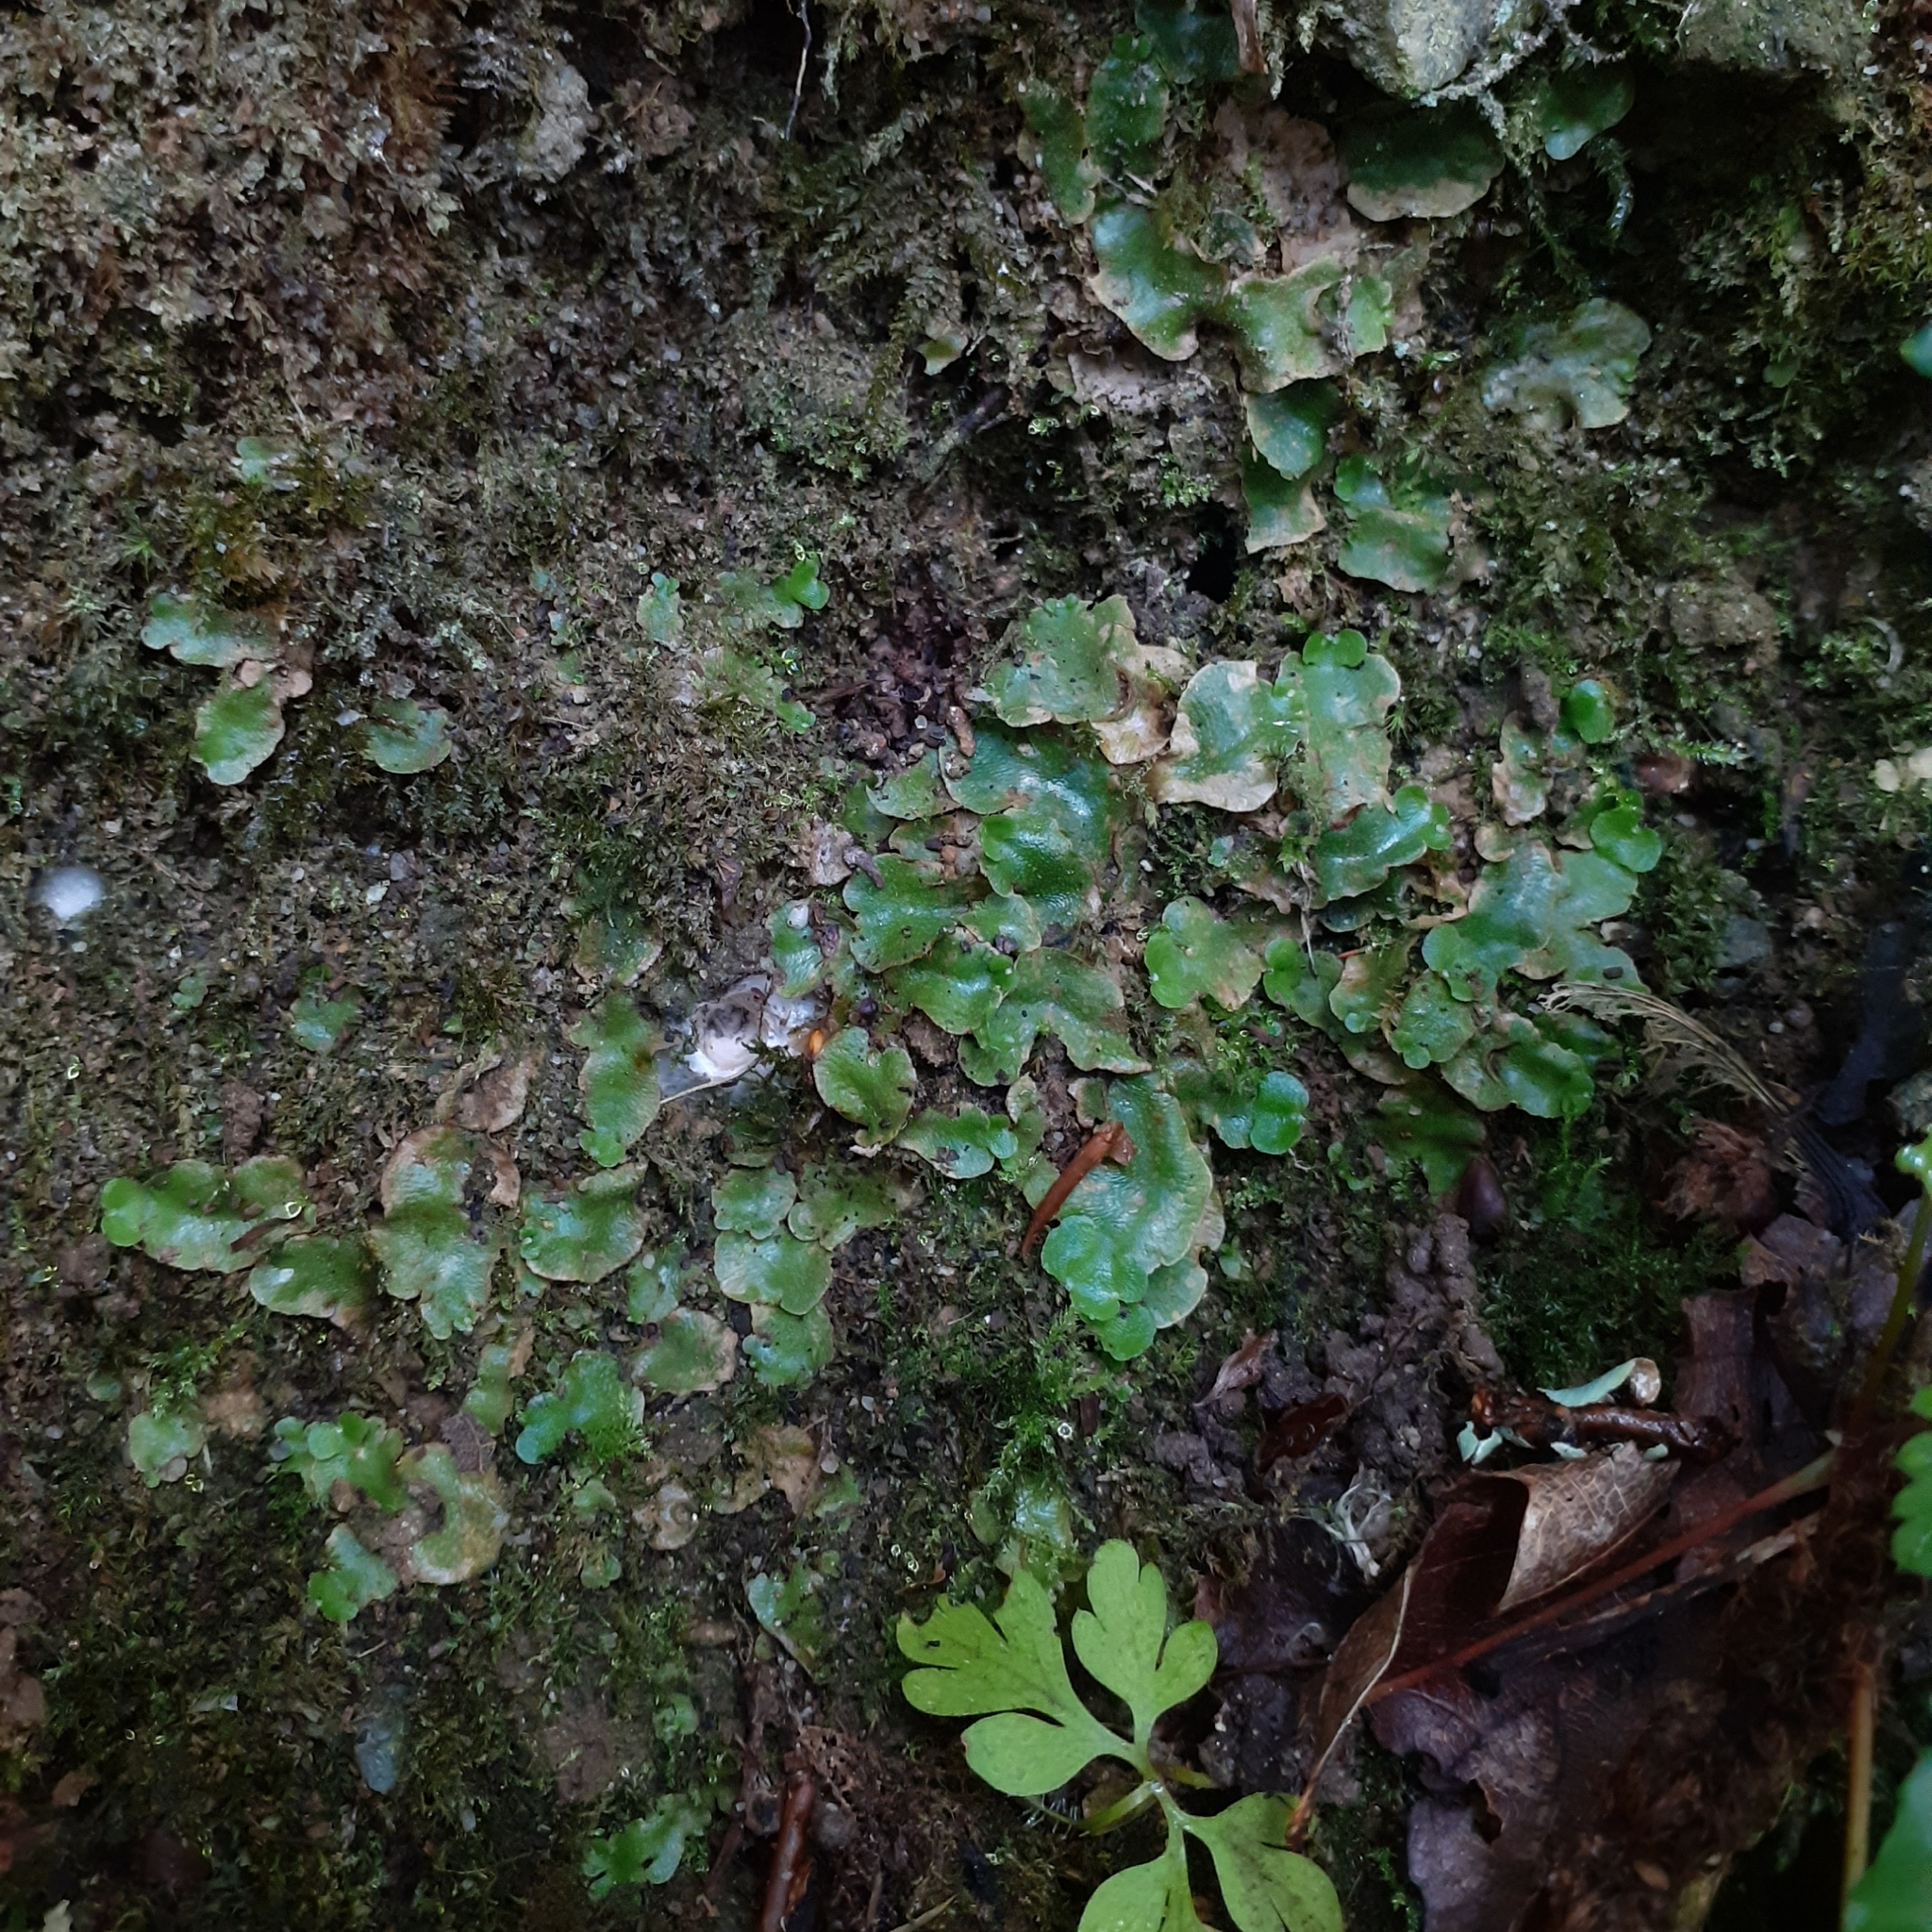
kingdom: Plantae
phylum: Marchantiophyta
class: Marchantiopsida
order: Lunulariales
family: Lunulariaceae
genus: Lunularia
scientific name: Lunularia cruciata
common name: Crescent-cup liverwort
